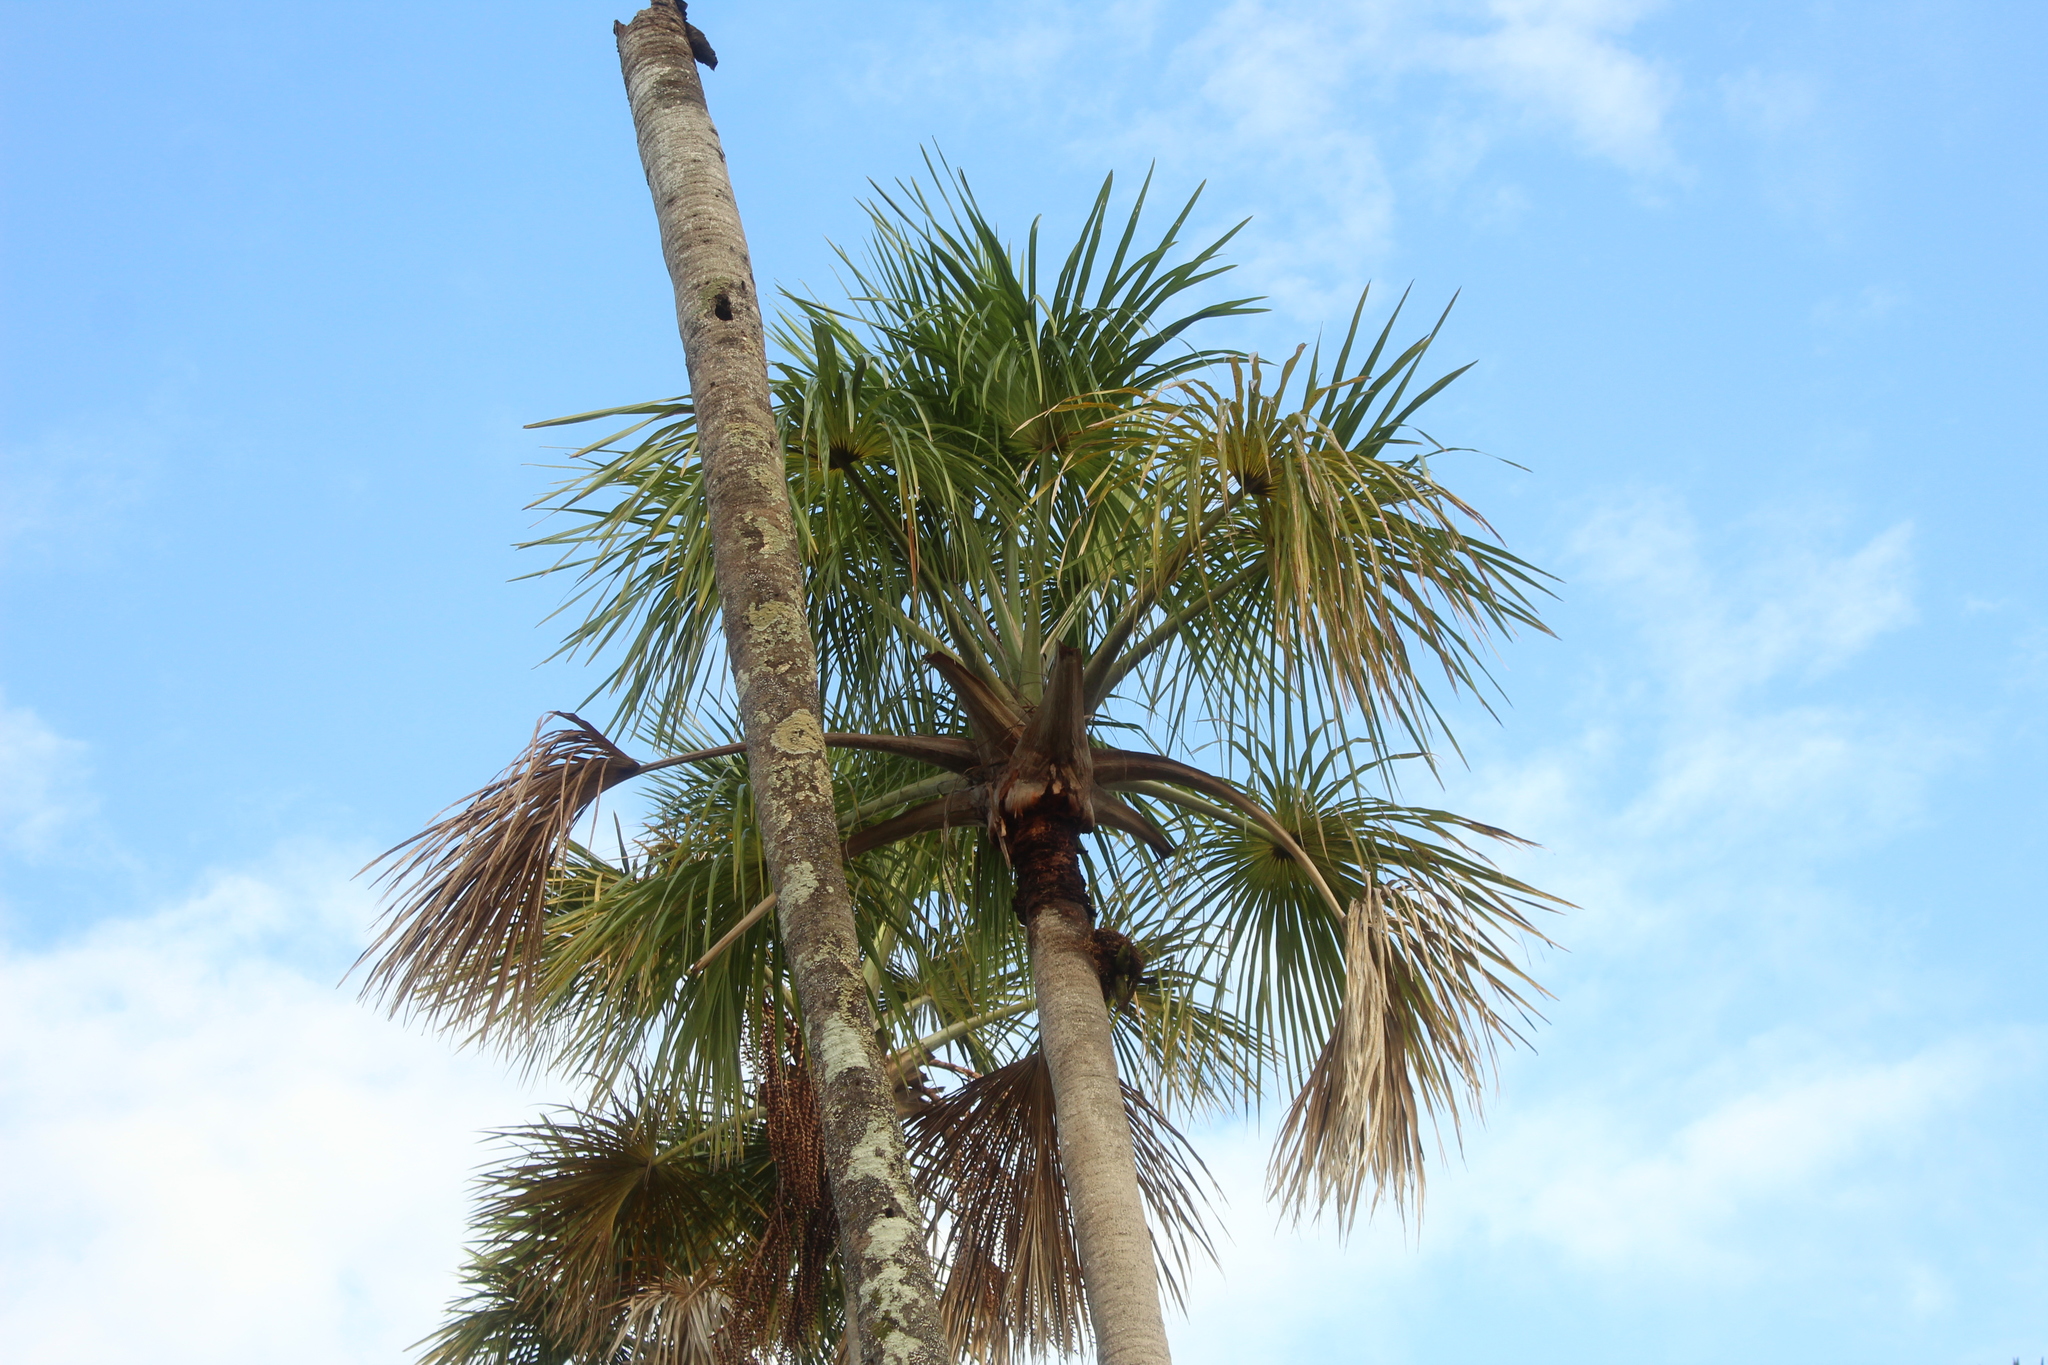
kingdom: Plantae
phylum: Tracheophyta
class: Liliopsida
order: Arecales
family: Arecaceae
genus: Mauritia
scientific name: Mauritia flexuosa
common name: Tree-of-life
